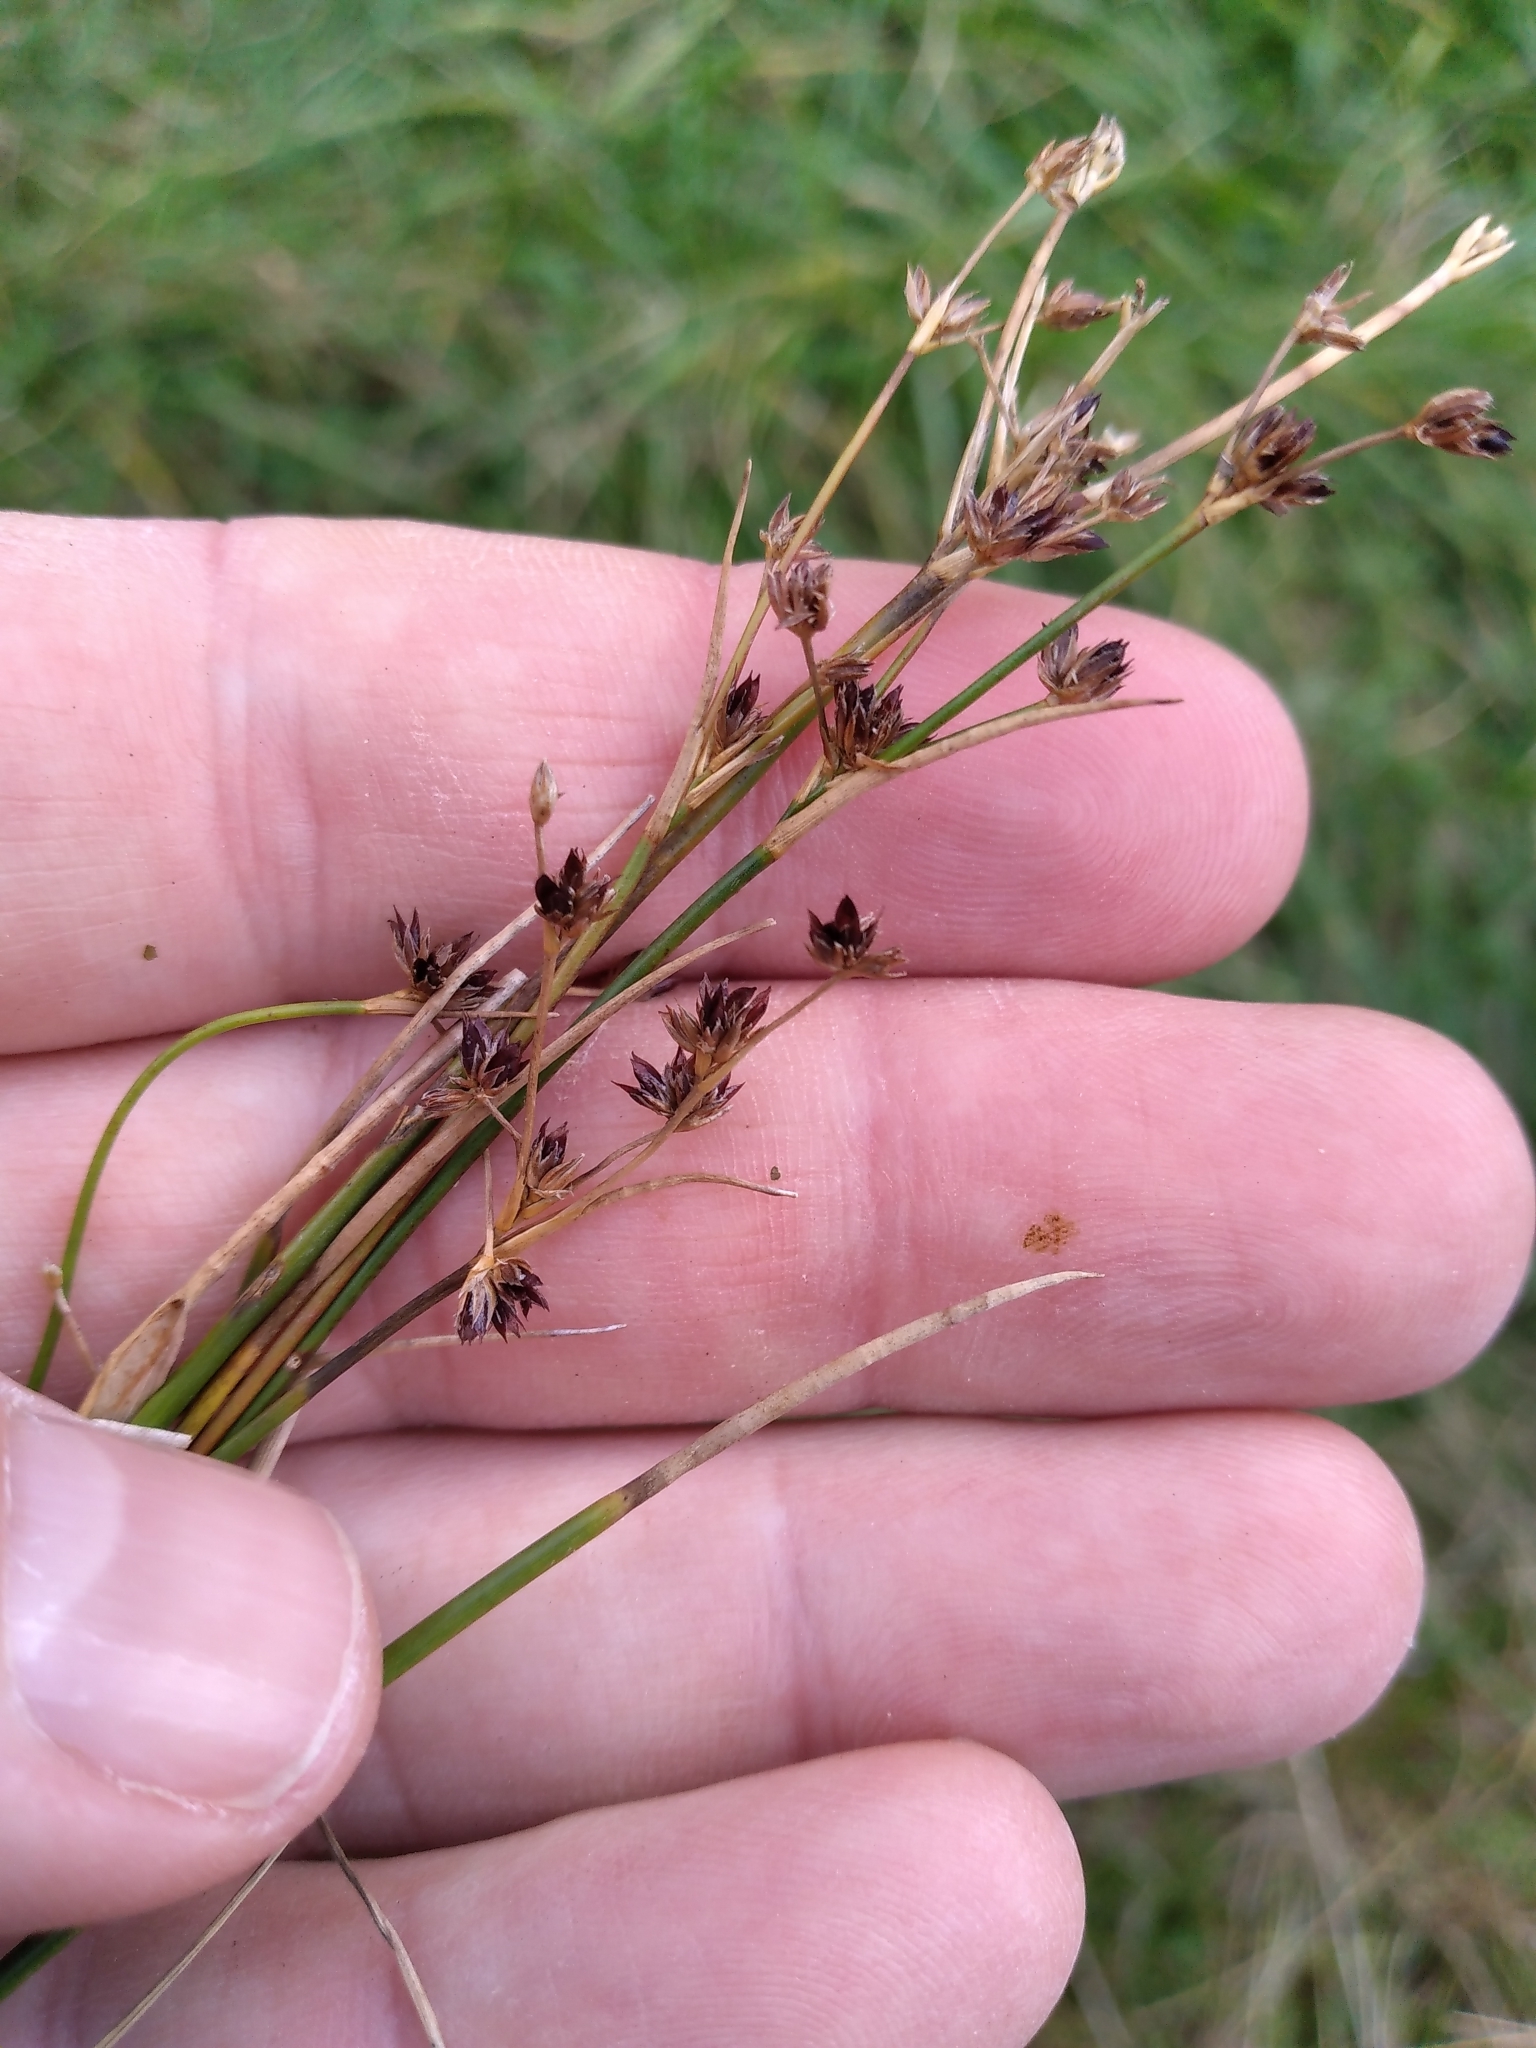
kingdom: Plantae
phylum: Tracheophyta
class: Liliopsida
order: Poales
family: Juncaceae
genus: Juncus
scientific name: Juncus articulatus
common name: Jointed rush
